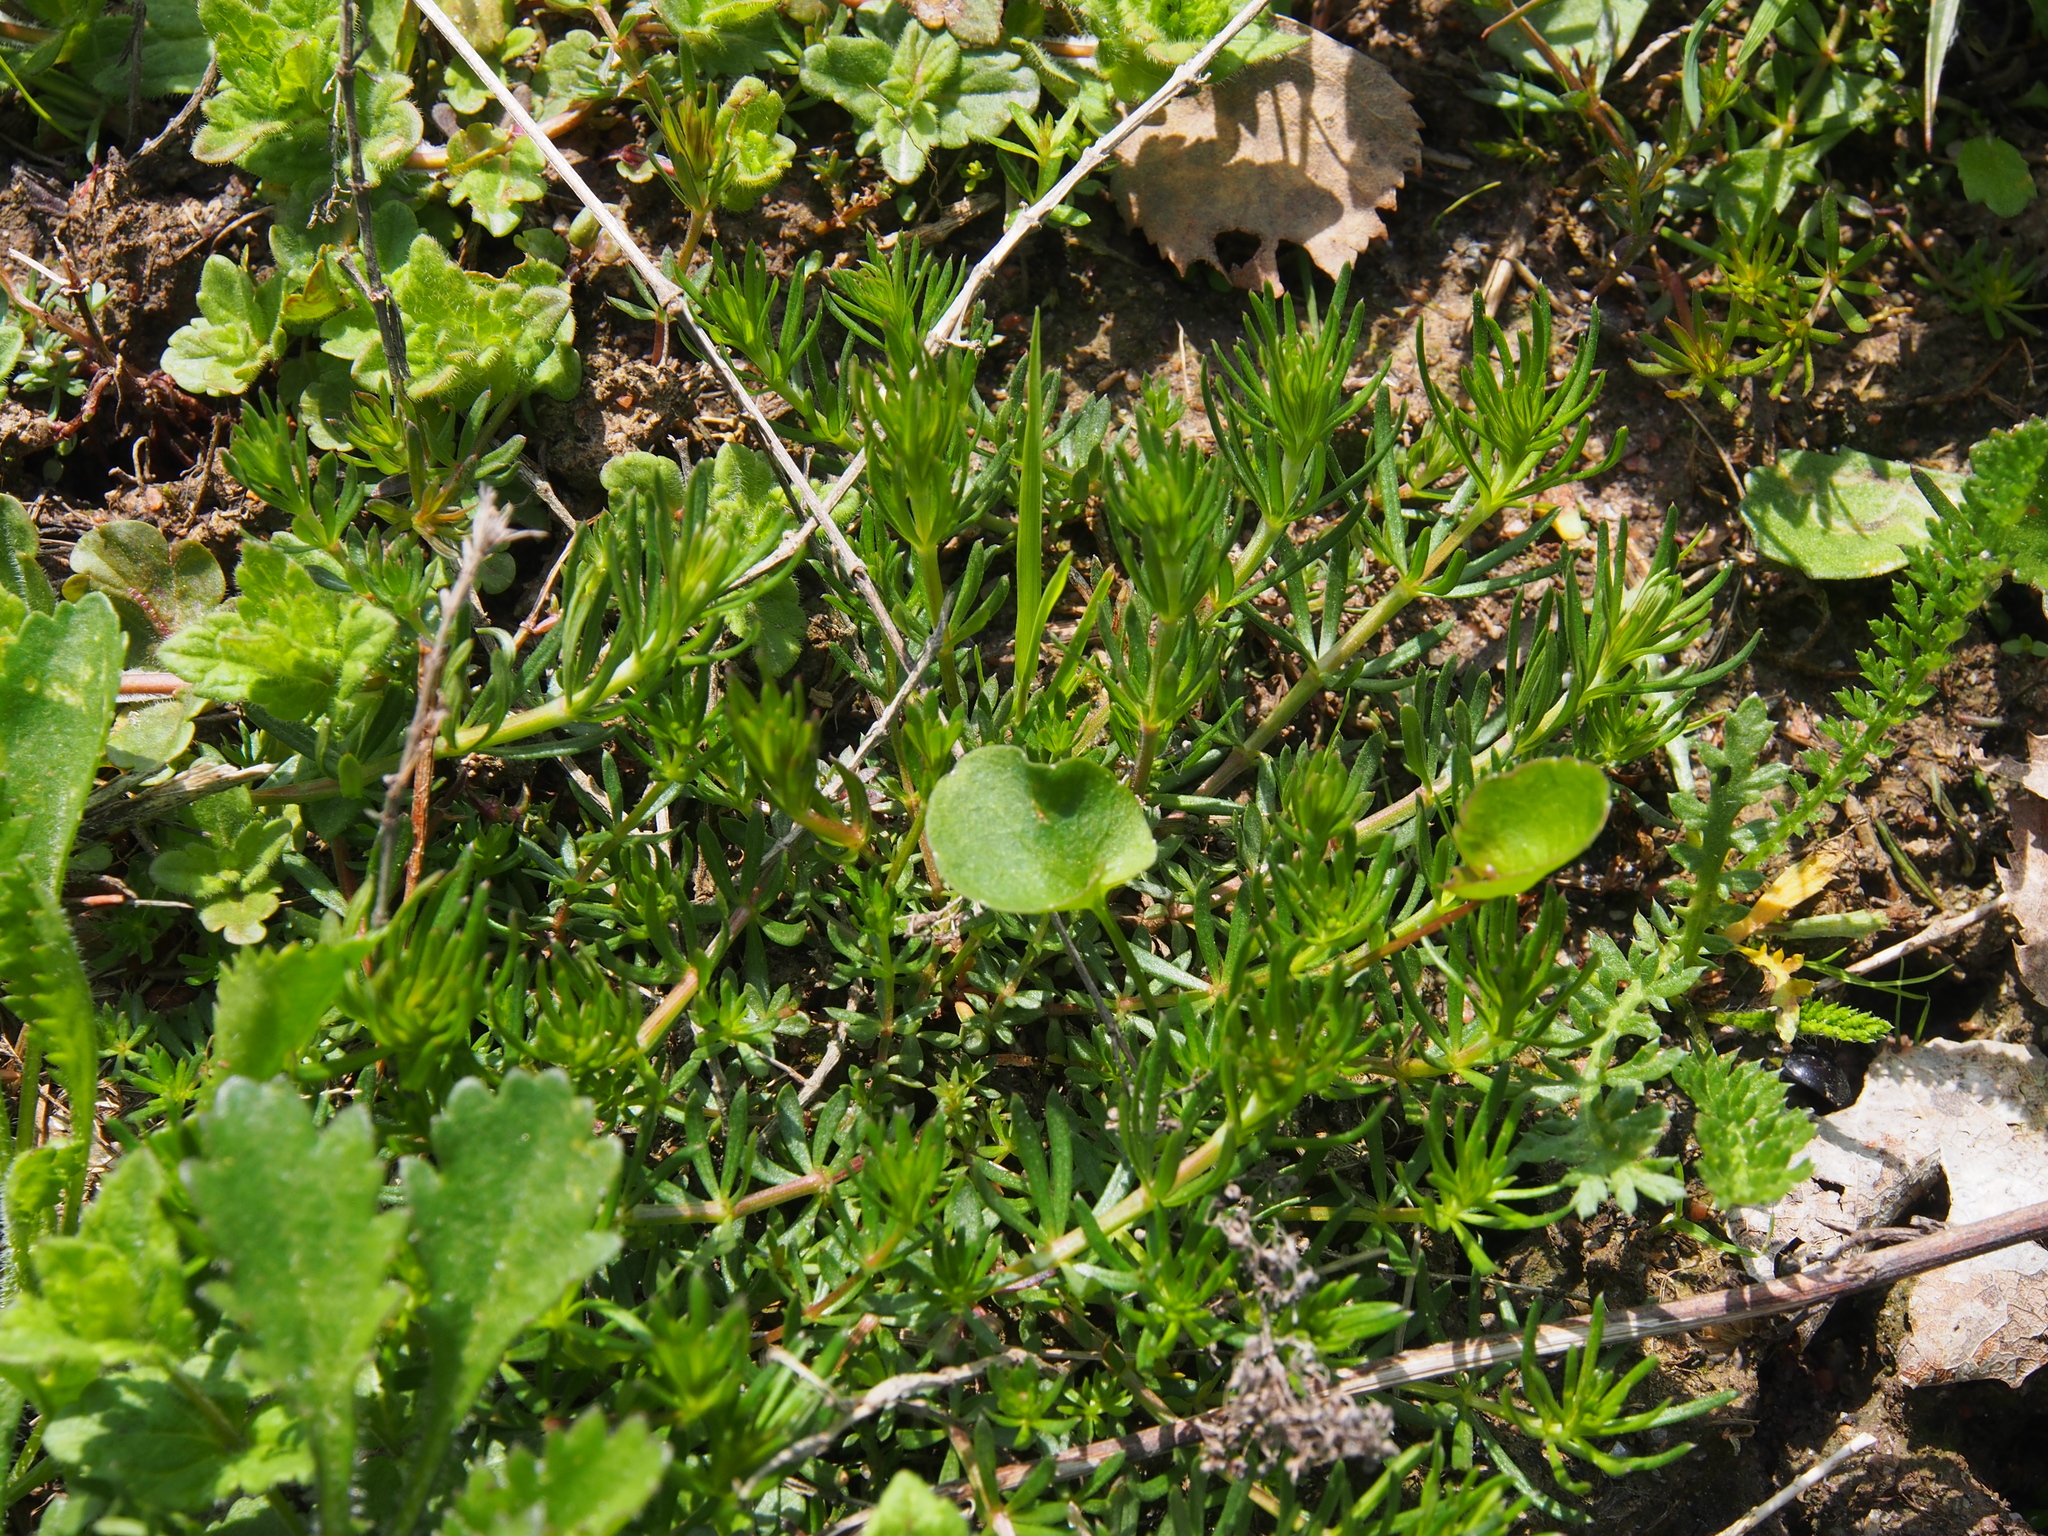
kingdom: Plantae
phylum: Tracheophyta
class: Magnoliopsida
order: Gentianales
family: Rubiaceae
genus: Galium
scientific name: Galium verum
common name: Lady's bedstraw
